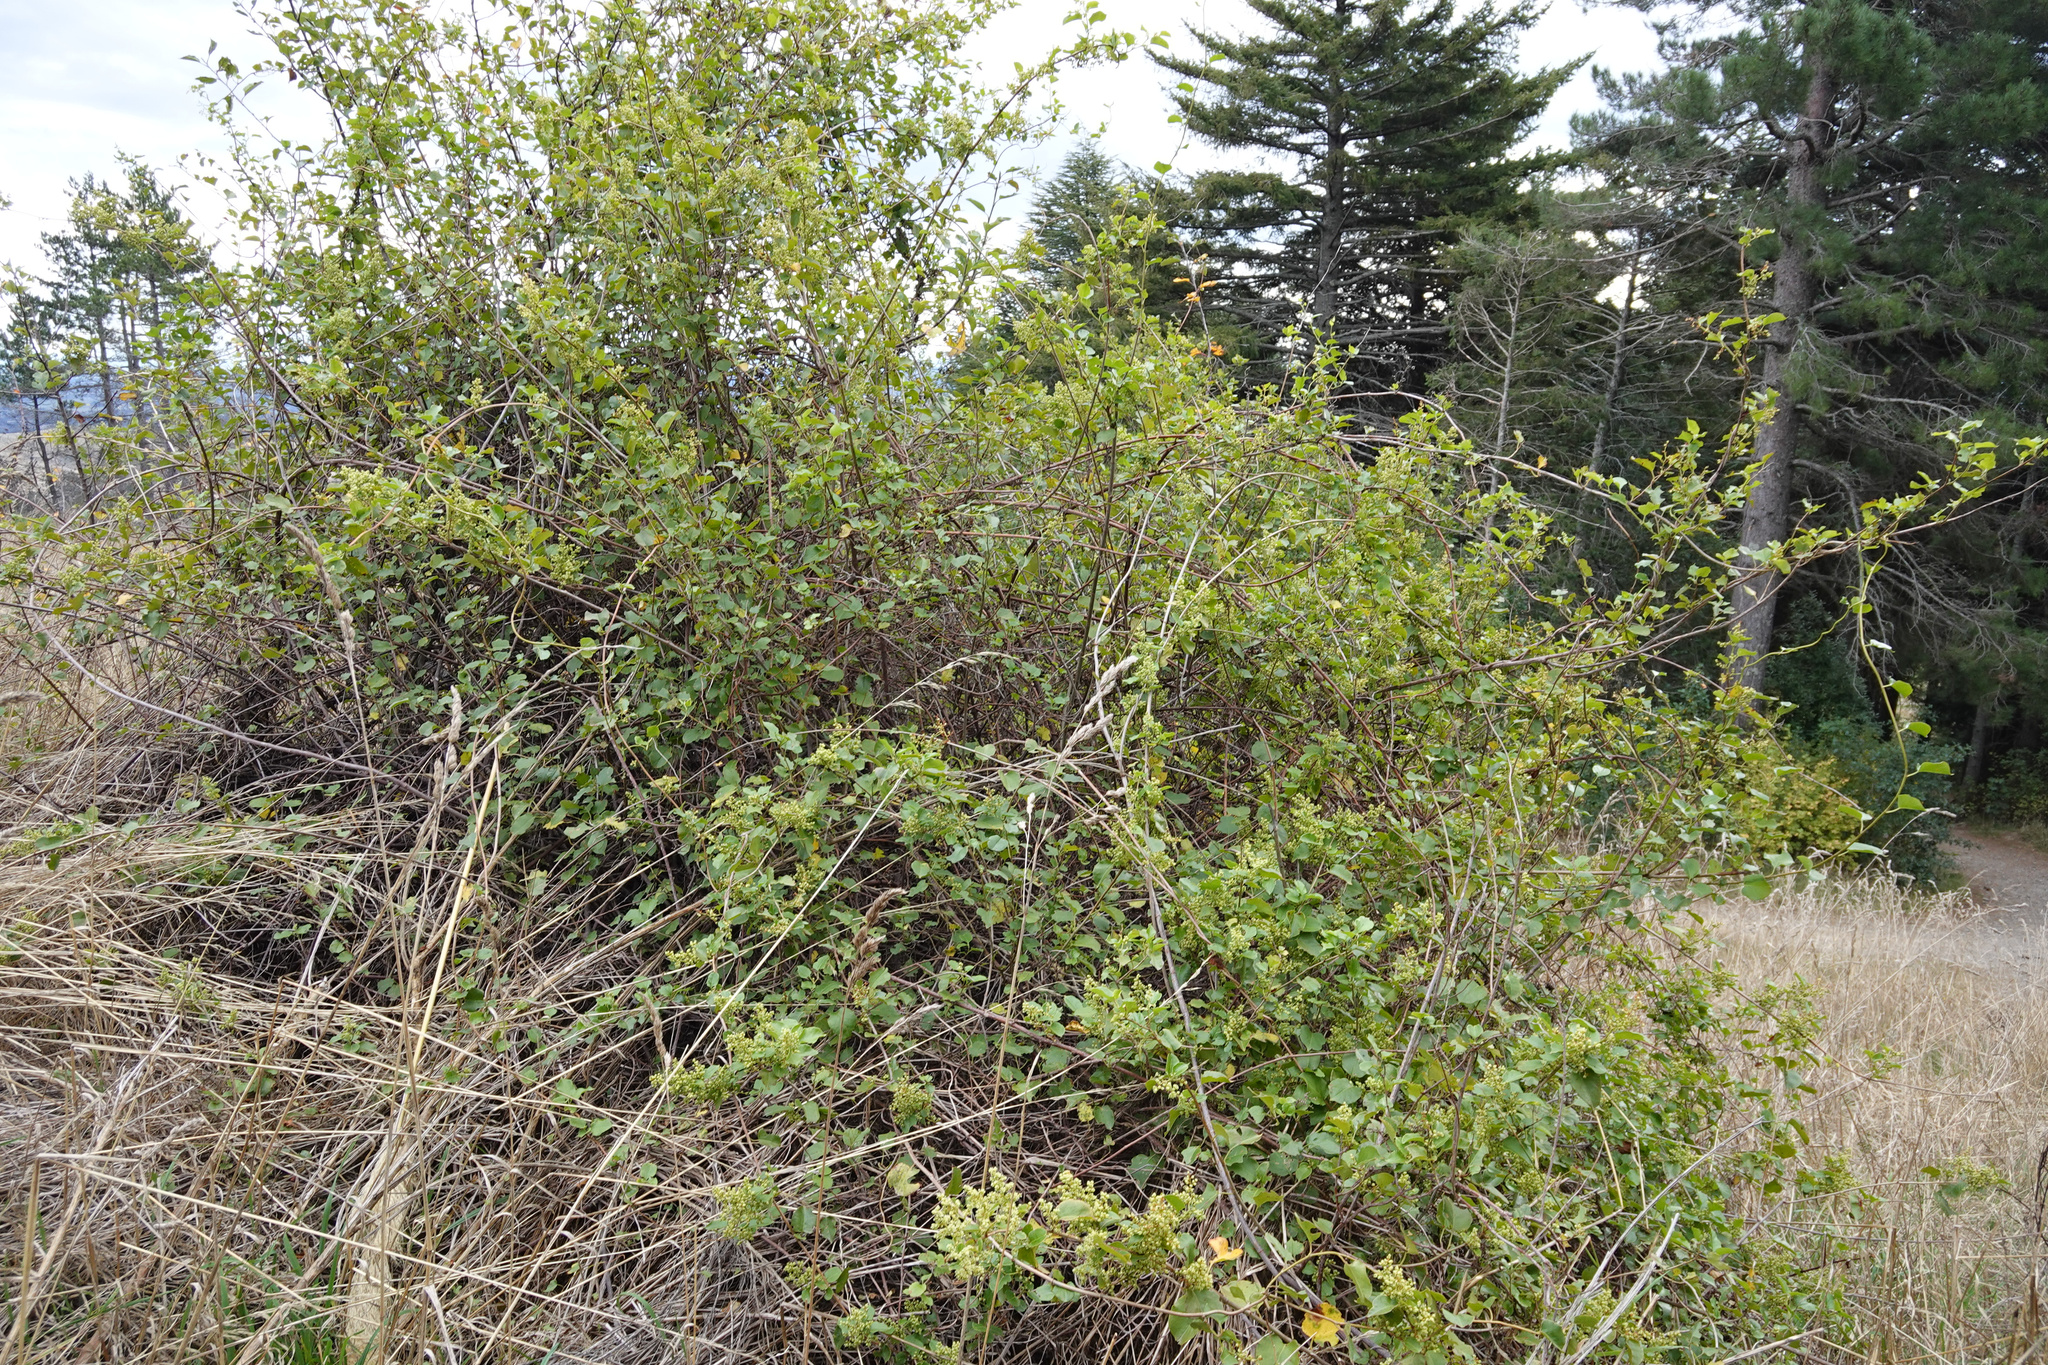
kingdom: Plantae
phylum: Tracheophyta
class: Magnoliopsida
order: Caryophyllales
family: Polygonaceae
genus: Muehlenbeckia
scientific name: Muehlenbeckia australis
